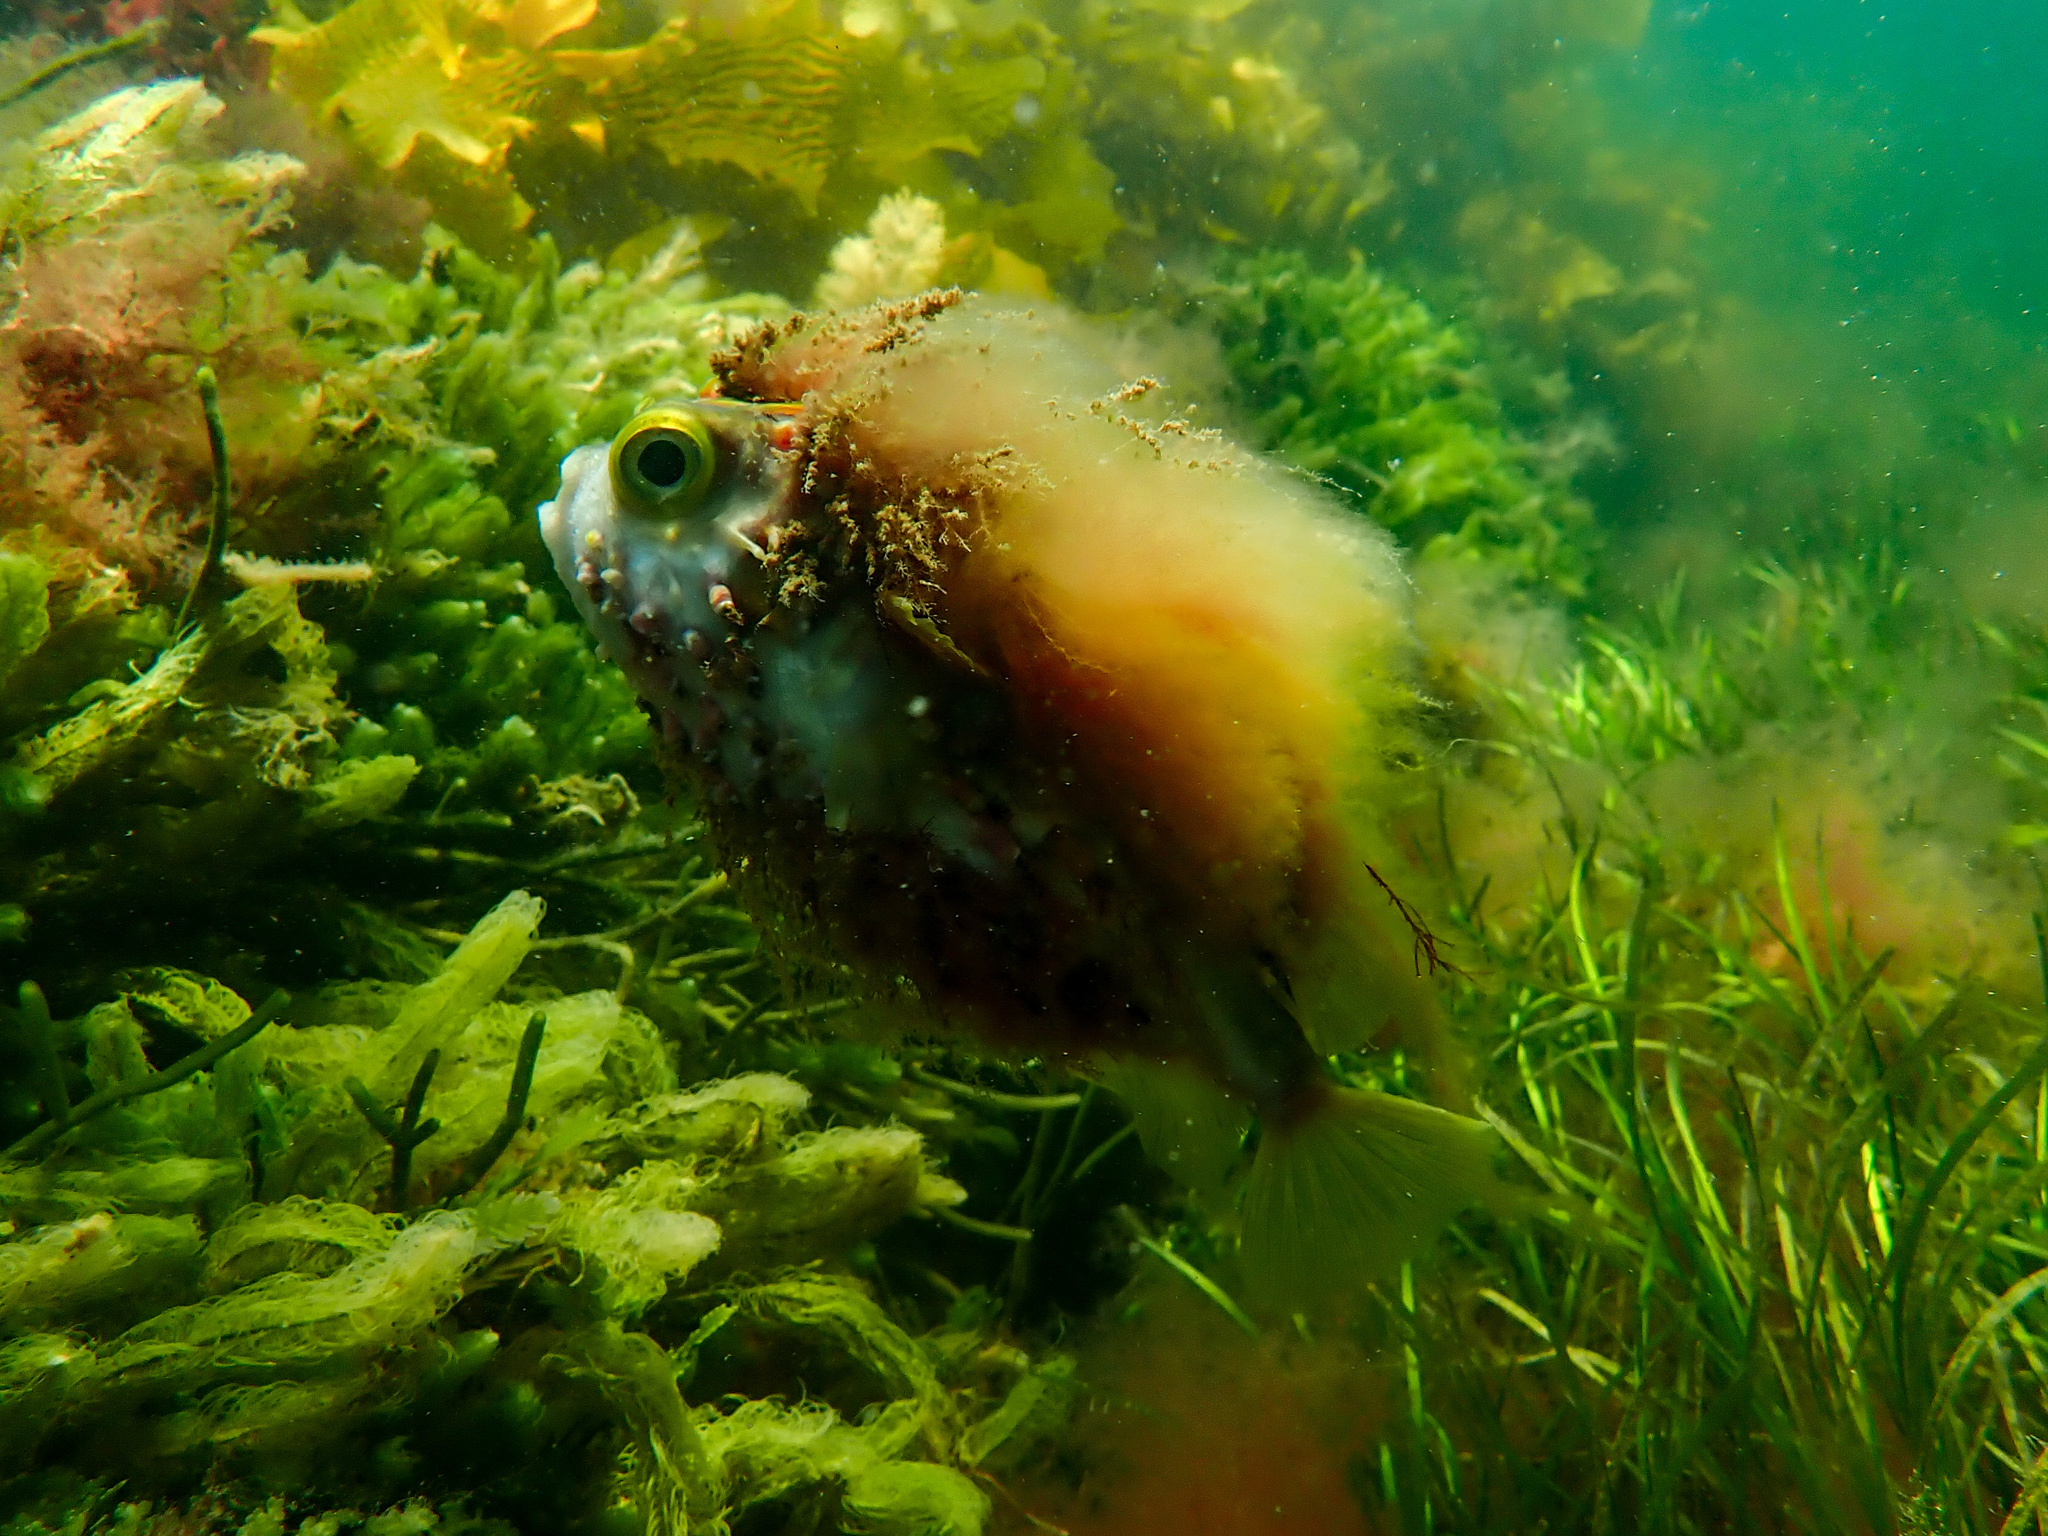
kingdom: Animalia
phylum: Chordata
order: Tetraodontiformes
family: Diodontidae
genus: Diodon
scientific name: Diodon nicthemerus
